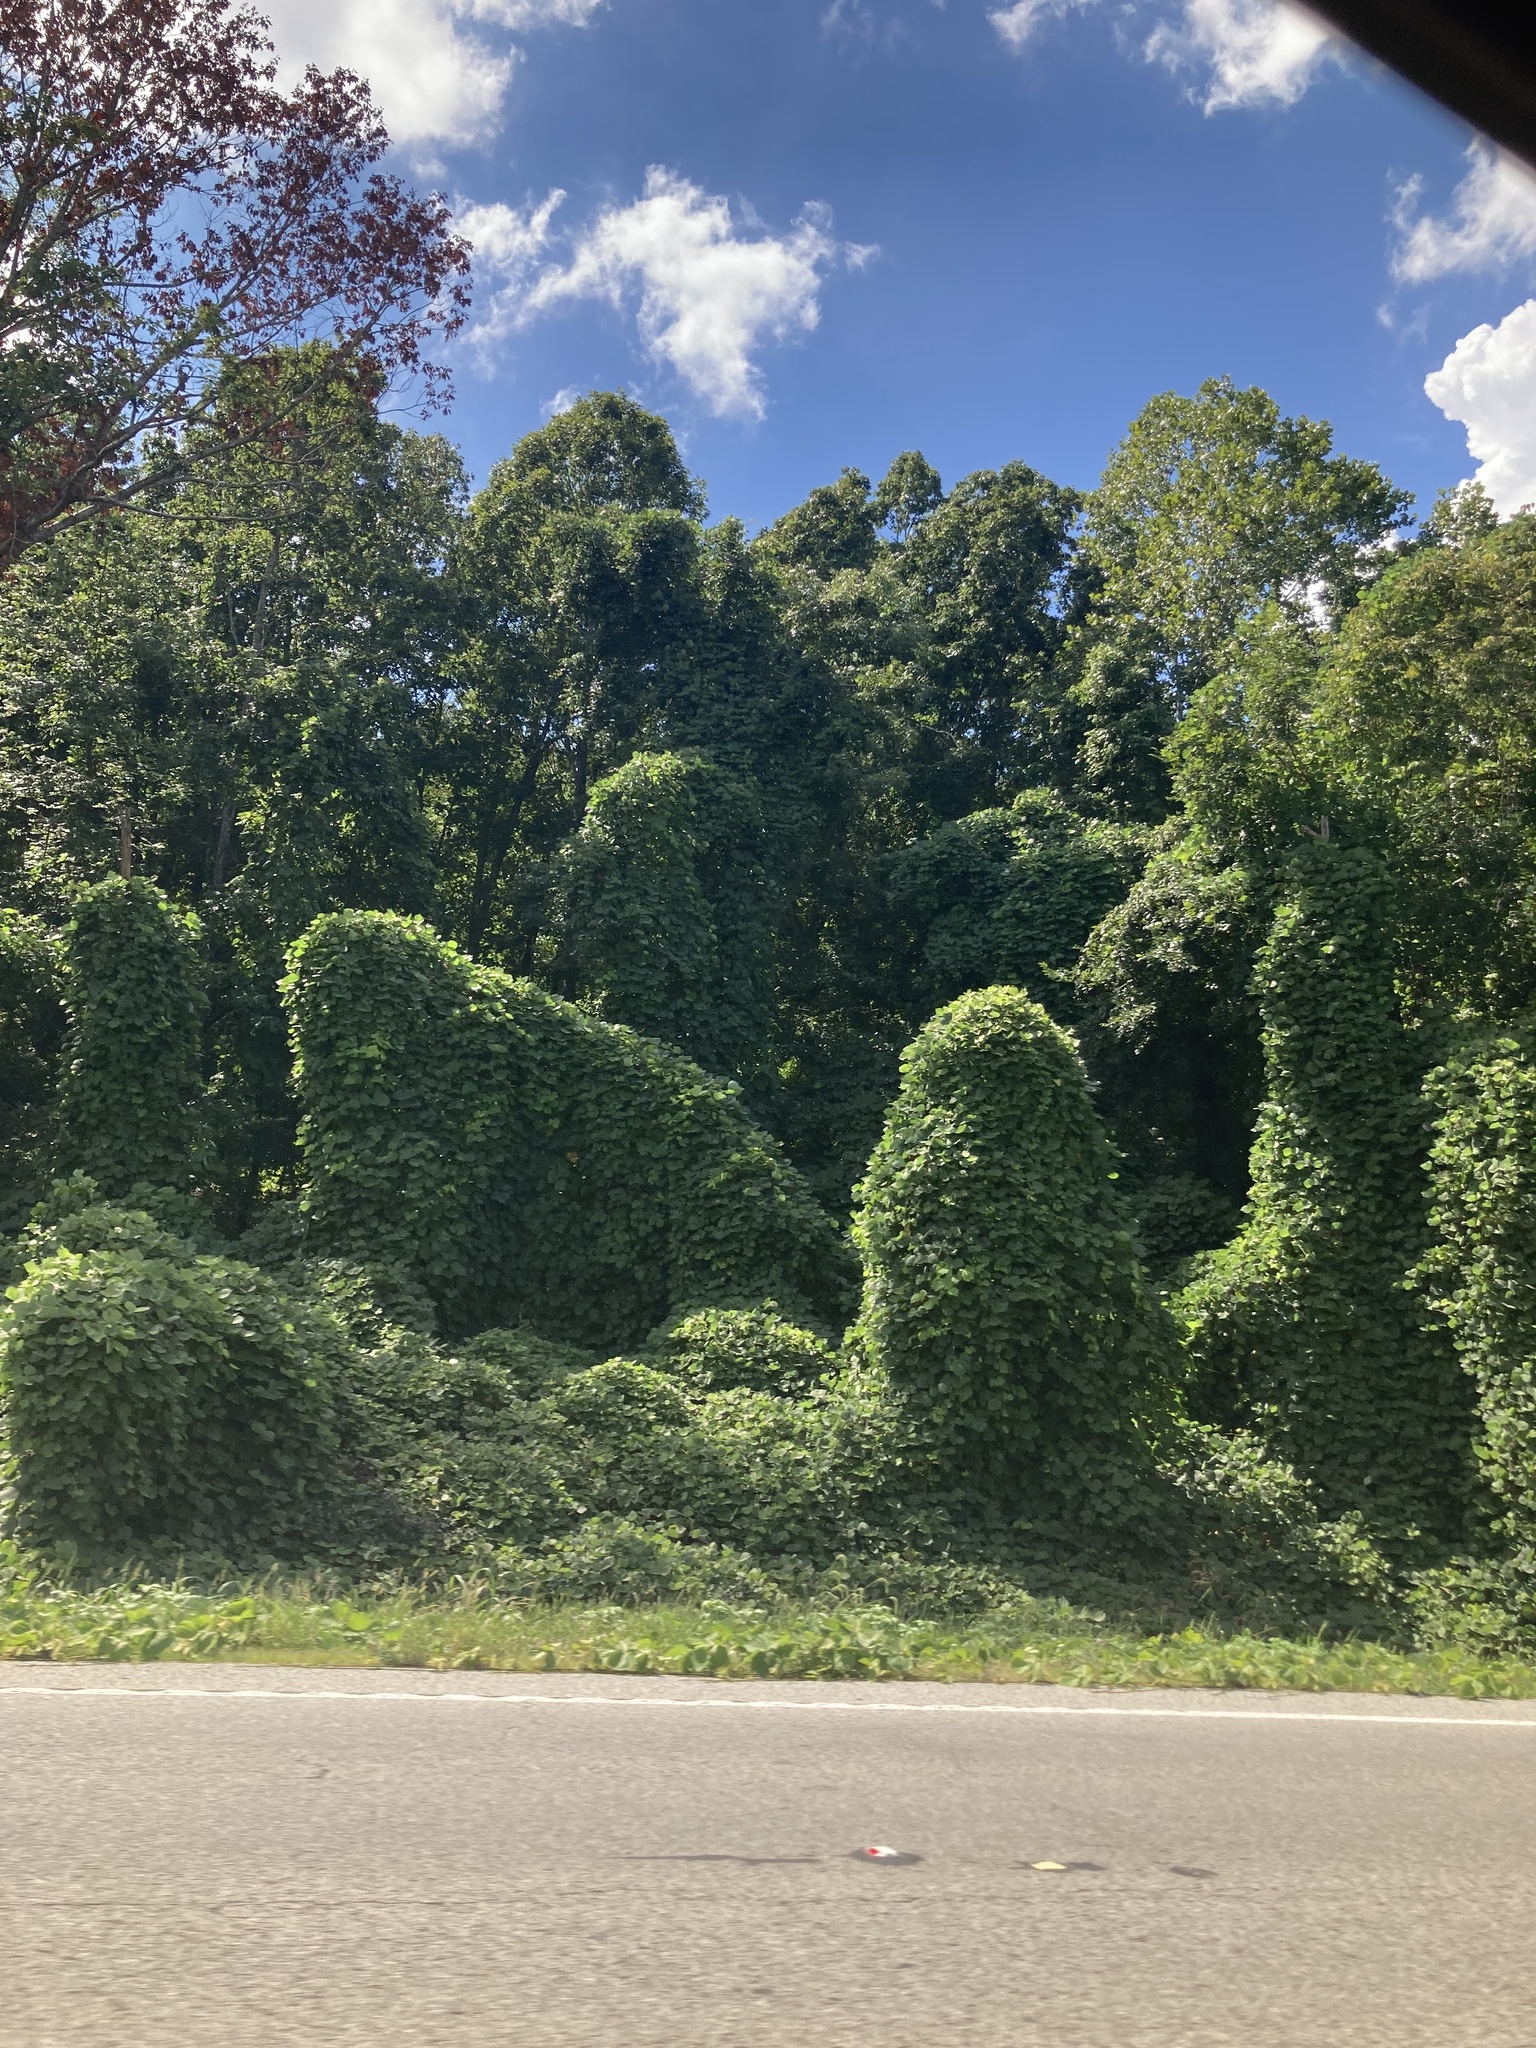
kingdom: Plantae
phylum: Tracheophyta
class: Magnoliopsida
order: Fabales
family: Fabaceae
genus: Pueraria
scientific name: Pueraria montana
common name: Kudzu
